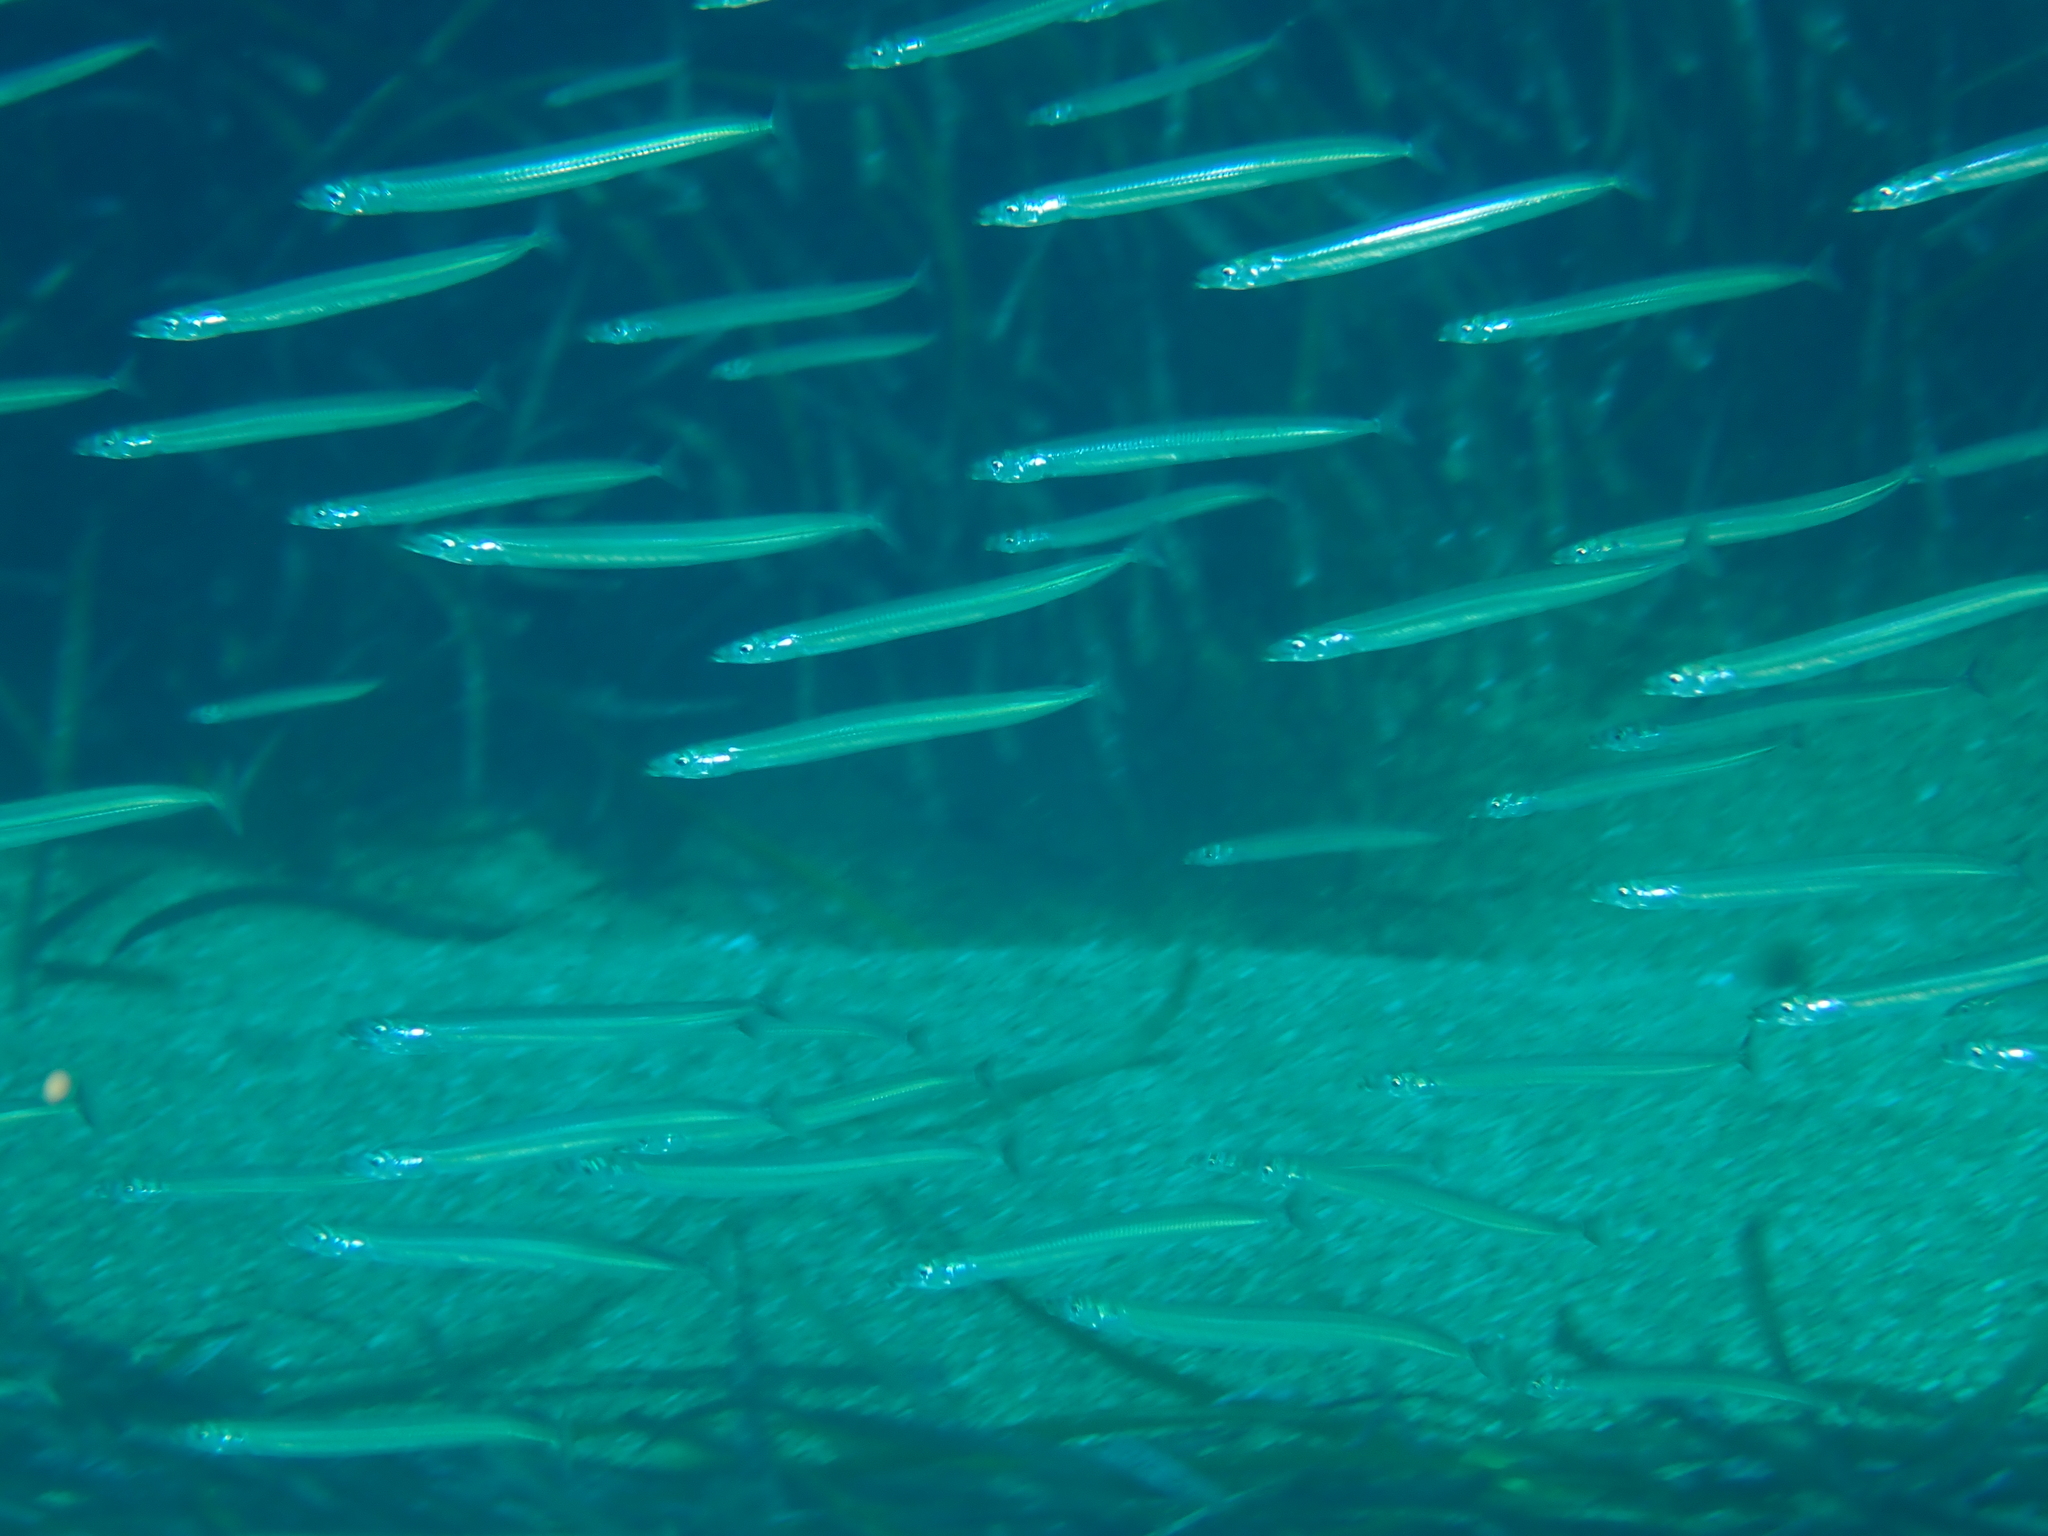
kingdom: Animalia
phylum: Chordata
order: Perciformes
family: Ammodytidae
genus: Gymnammodytes
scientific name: Gymnammodytes cicerelus
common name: Mediterranean sand eel
